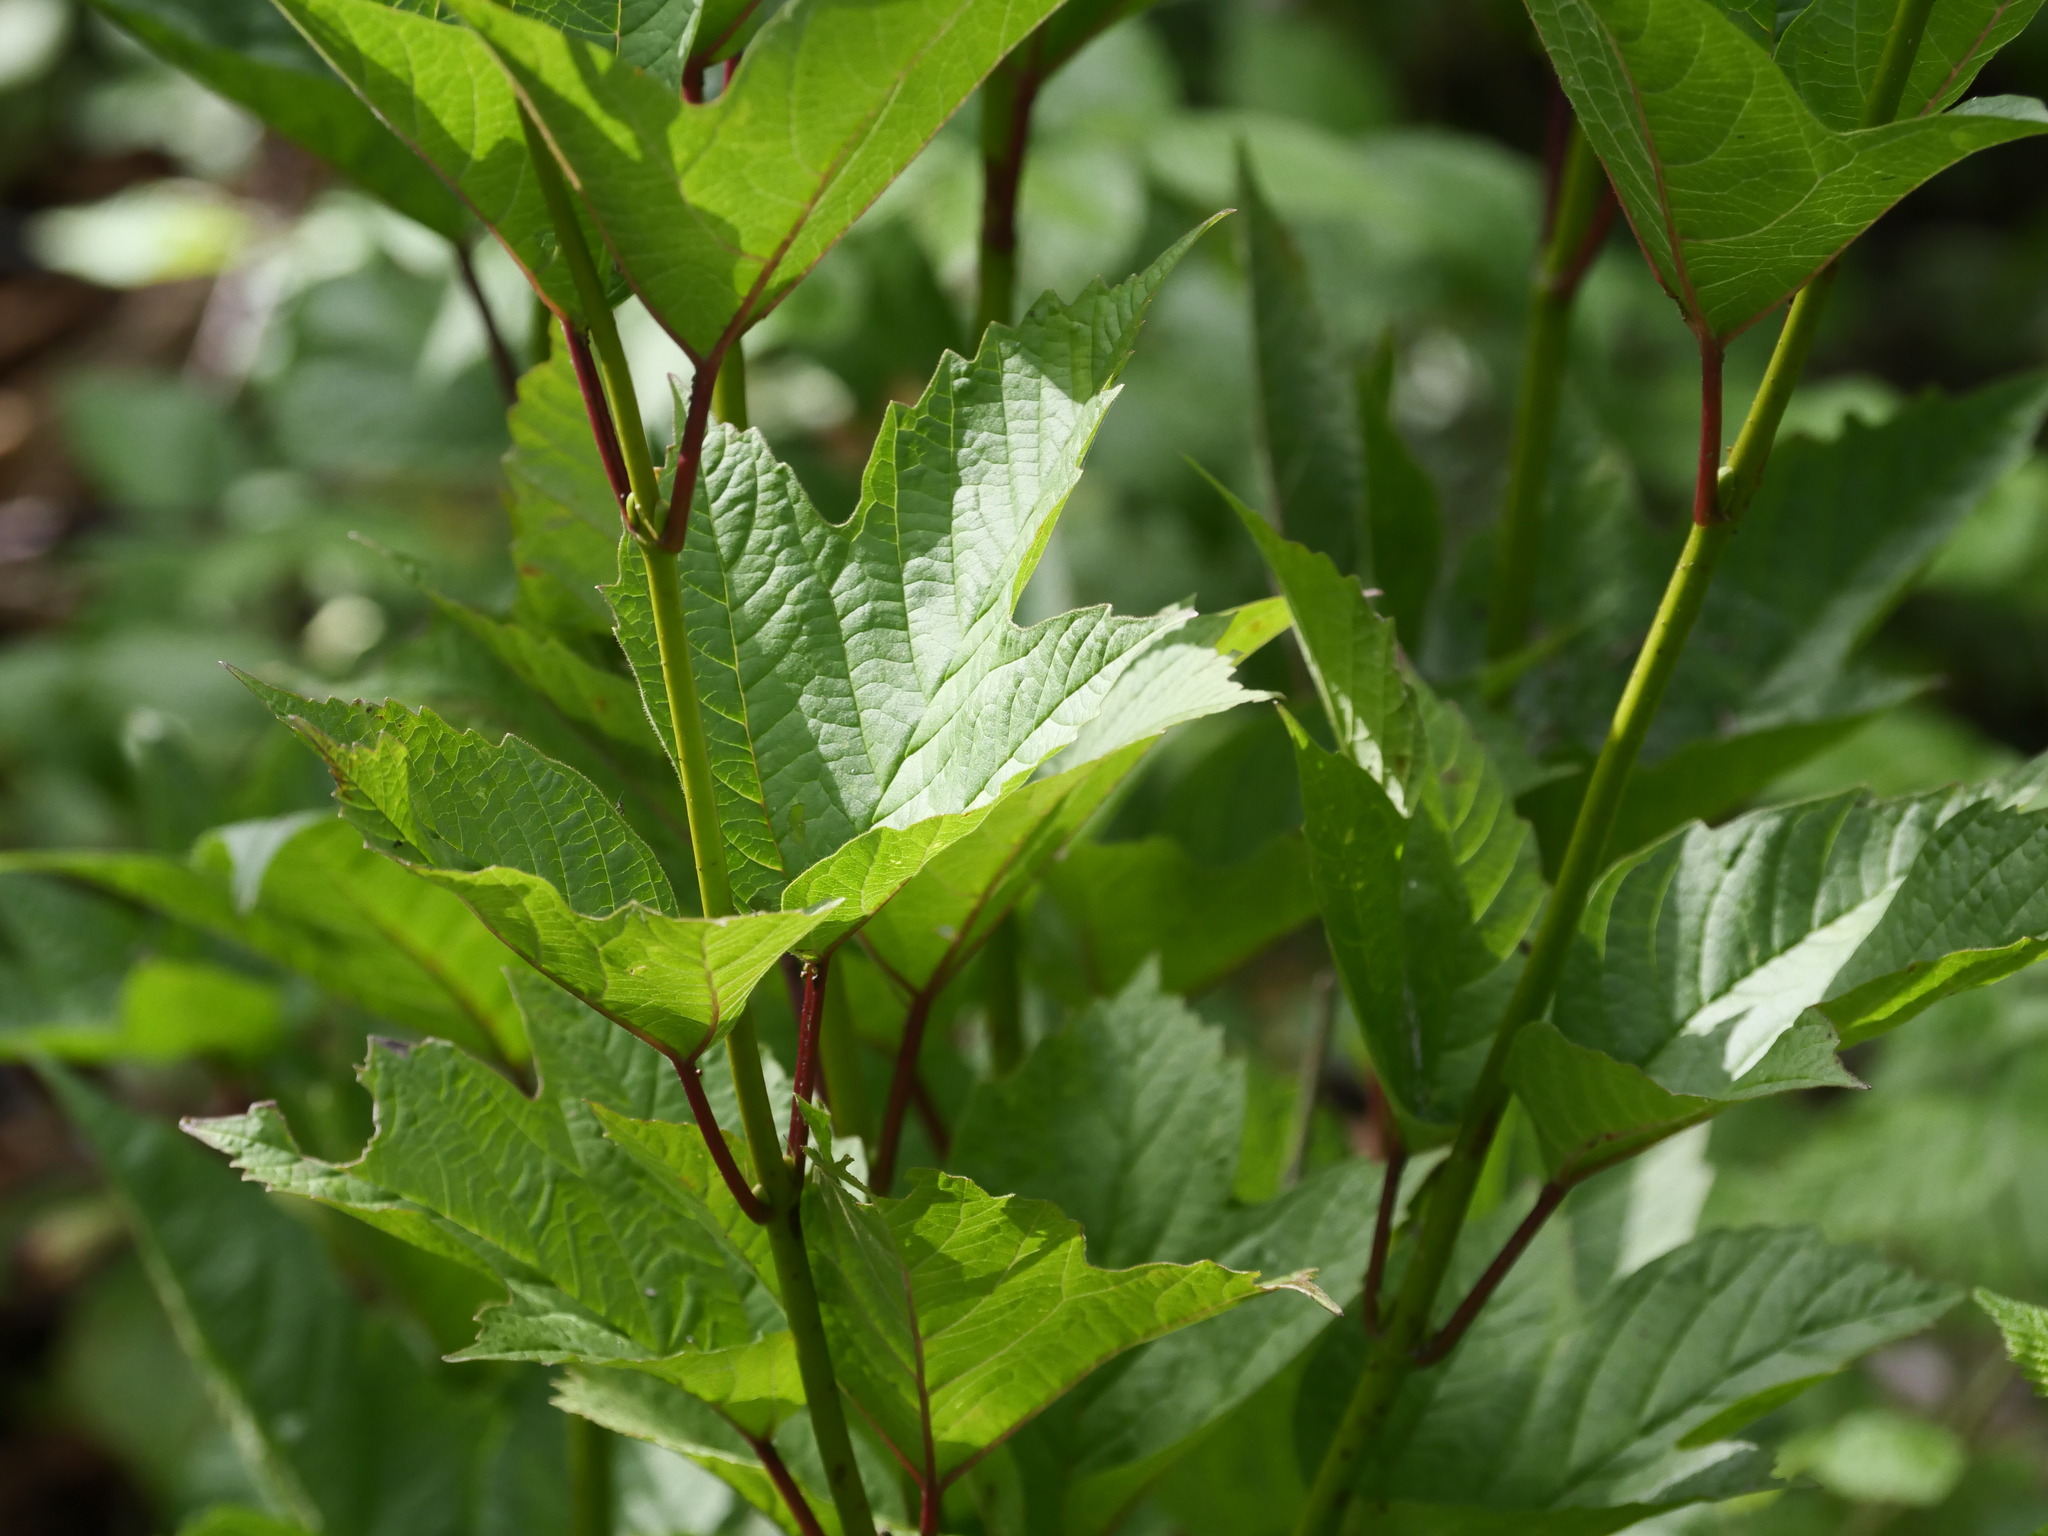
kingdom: Plantae
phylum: Tracheophyta
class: Magnoliopsida
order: Dipsacales
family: Viburnaceae
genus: Viburnum
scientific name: Viburnum opulus
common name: Guelder-rose
